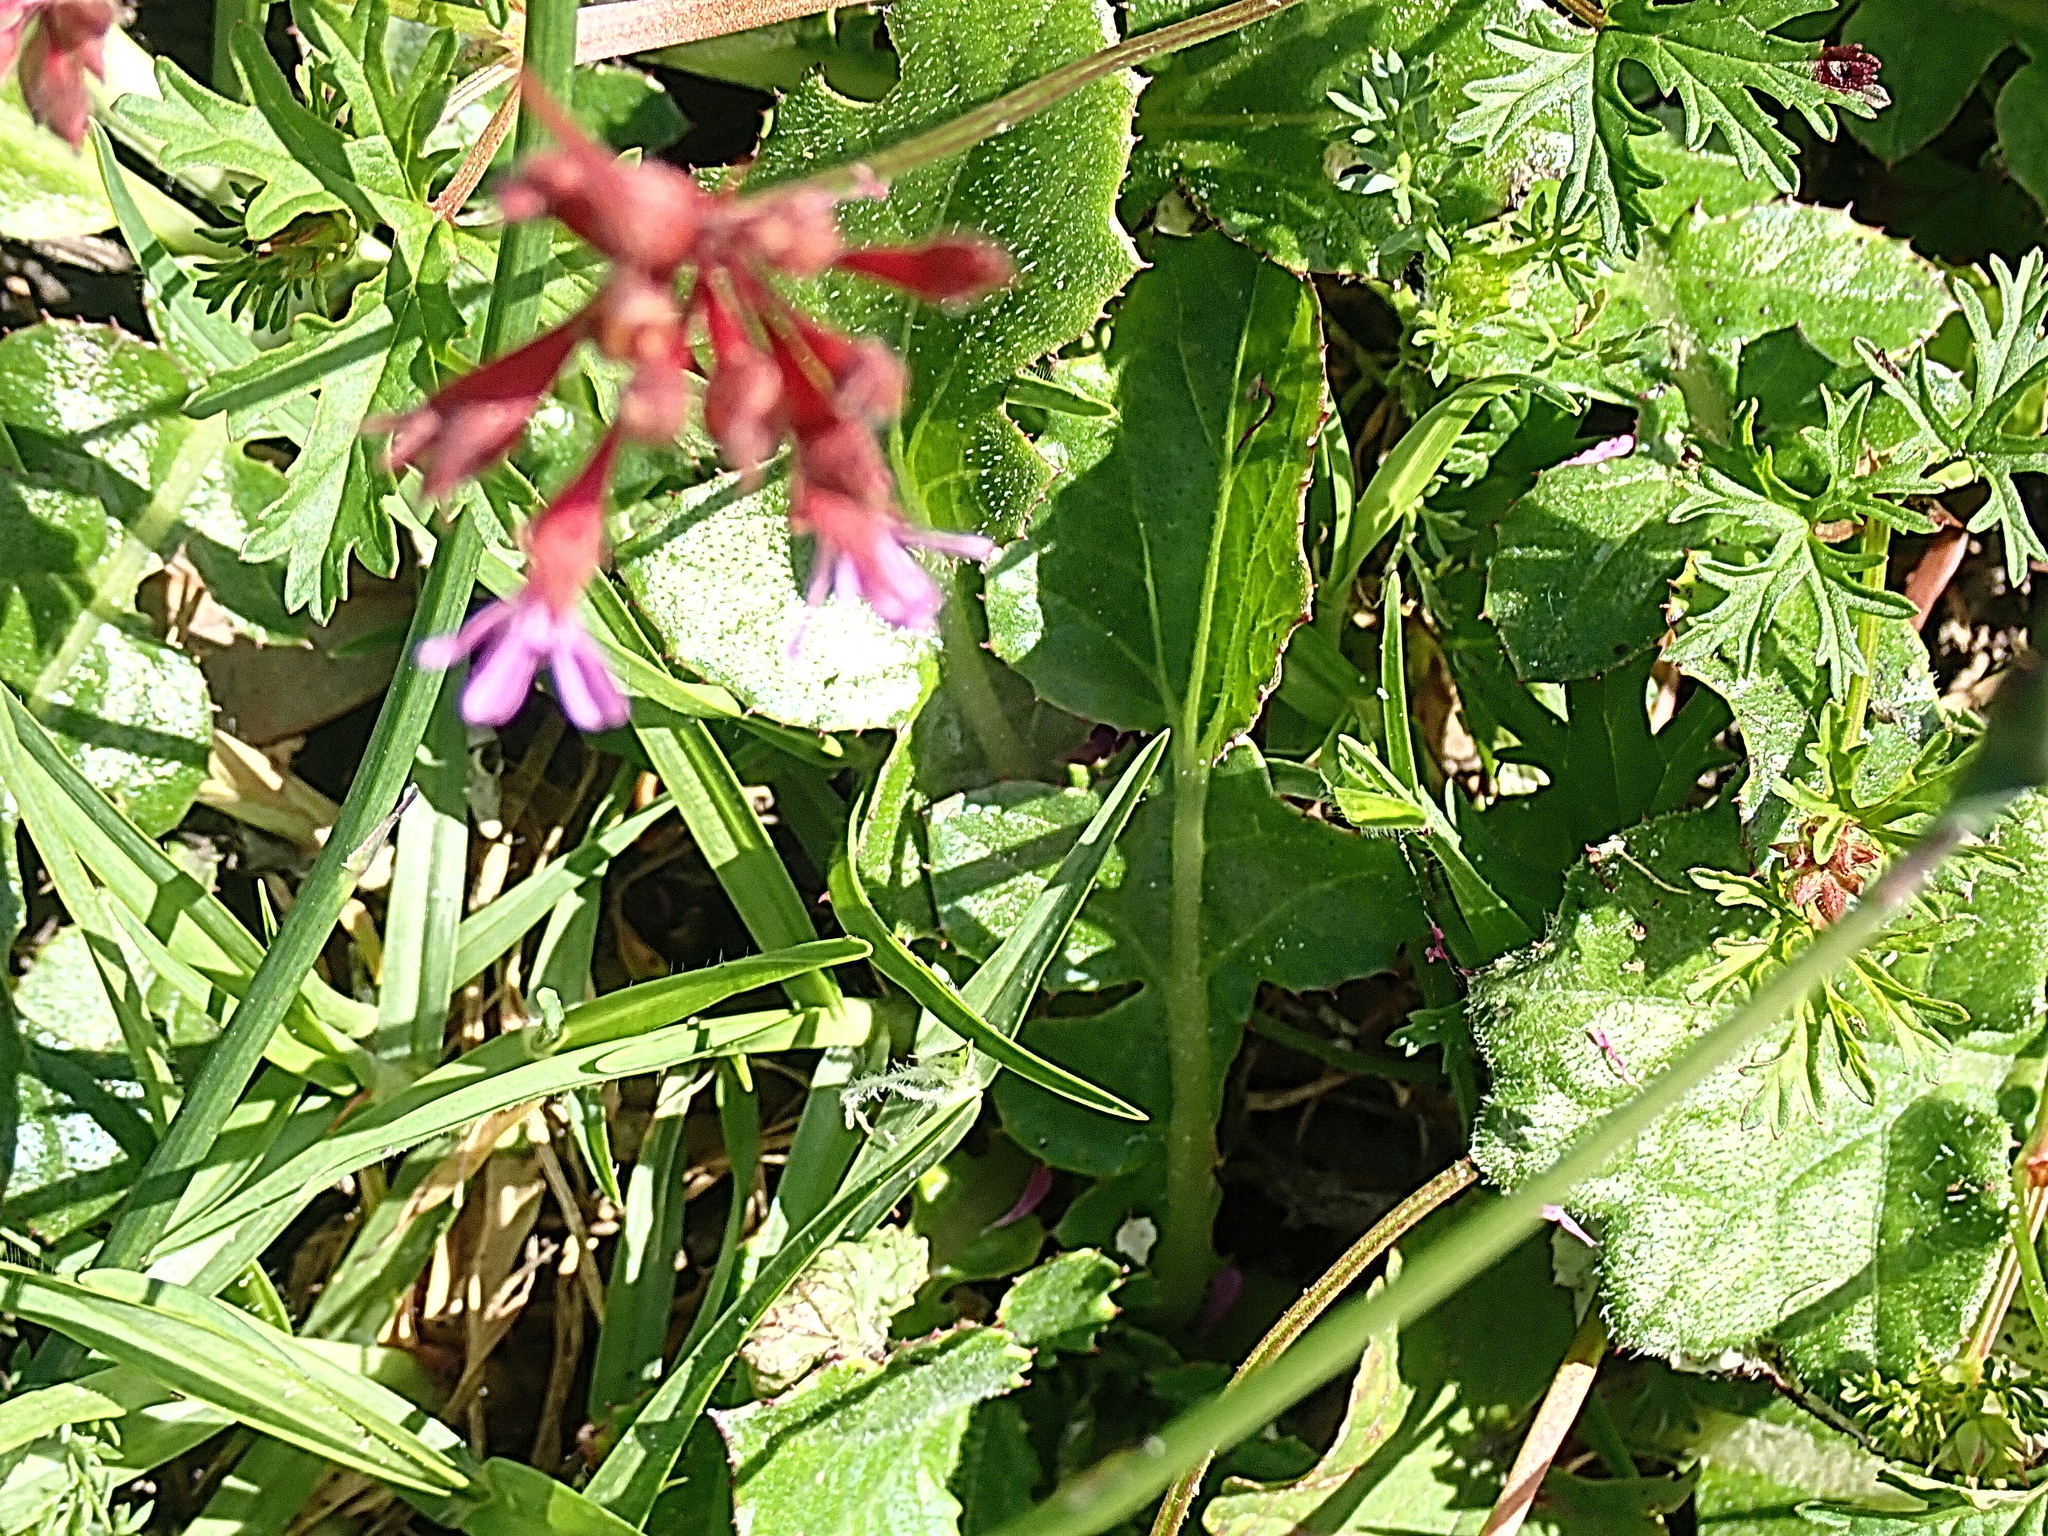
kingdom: Plantae
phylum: Tracheophyta
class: Magnoliopsida
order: Geraniales
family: Geraniaceae
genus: Pelargonium
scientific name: Pelargonium grossularioides
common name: Gooseberry geranium
